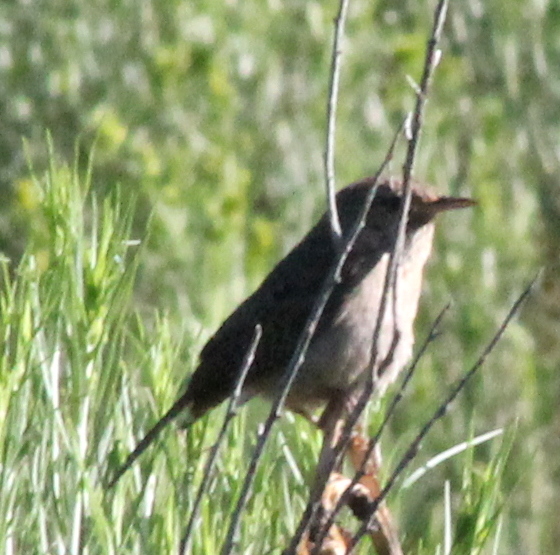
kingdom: Animalia
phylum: Chordata
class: Aves
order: Passeriformes
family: Troglodytidae
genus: Troglodytes
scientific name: Troglodytes aedon
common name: House wren
